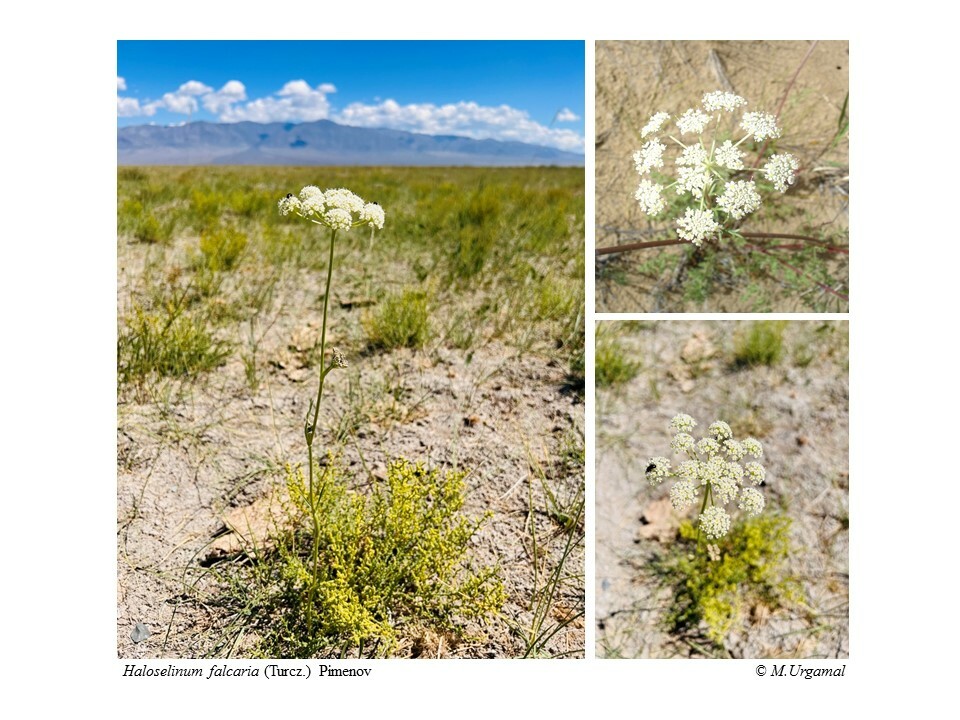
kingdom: Plantae
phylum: Tracheophyta
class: Magnoliopsida
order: Apiales
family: Apiaceae
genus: Haloselinum
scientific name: Haloselinum falcaria
